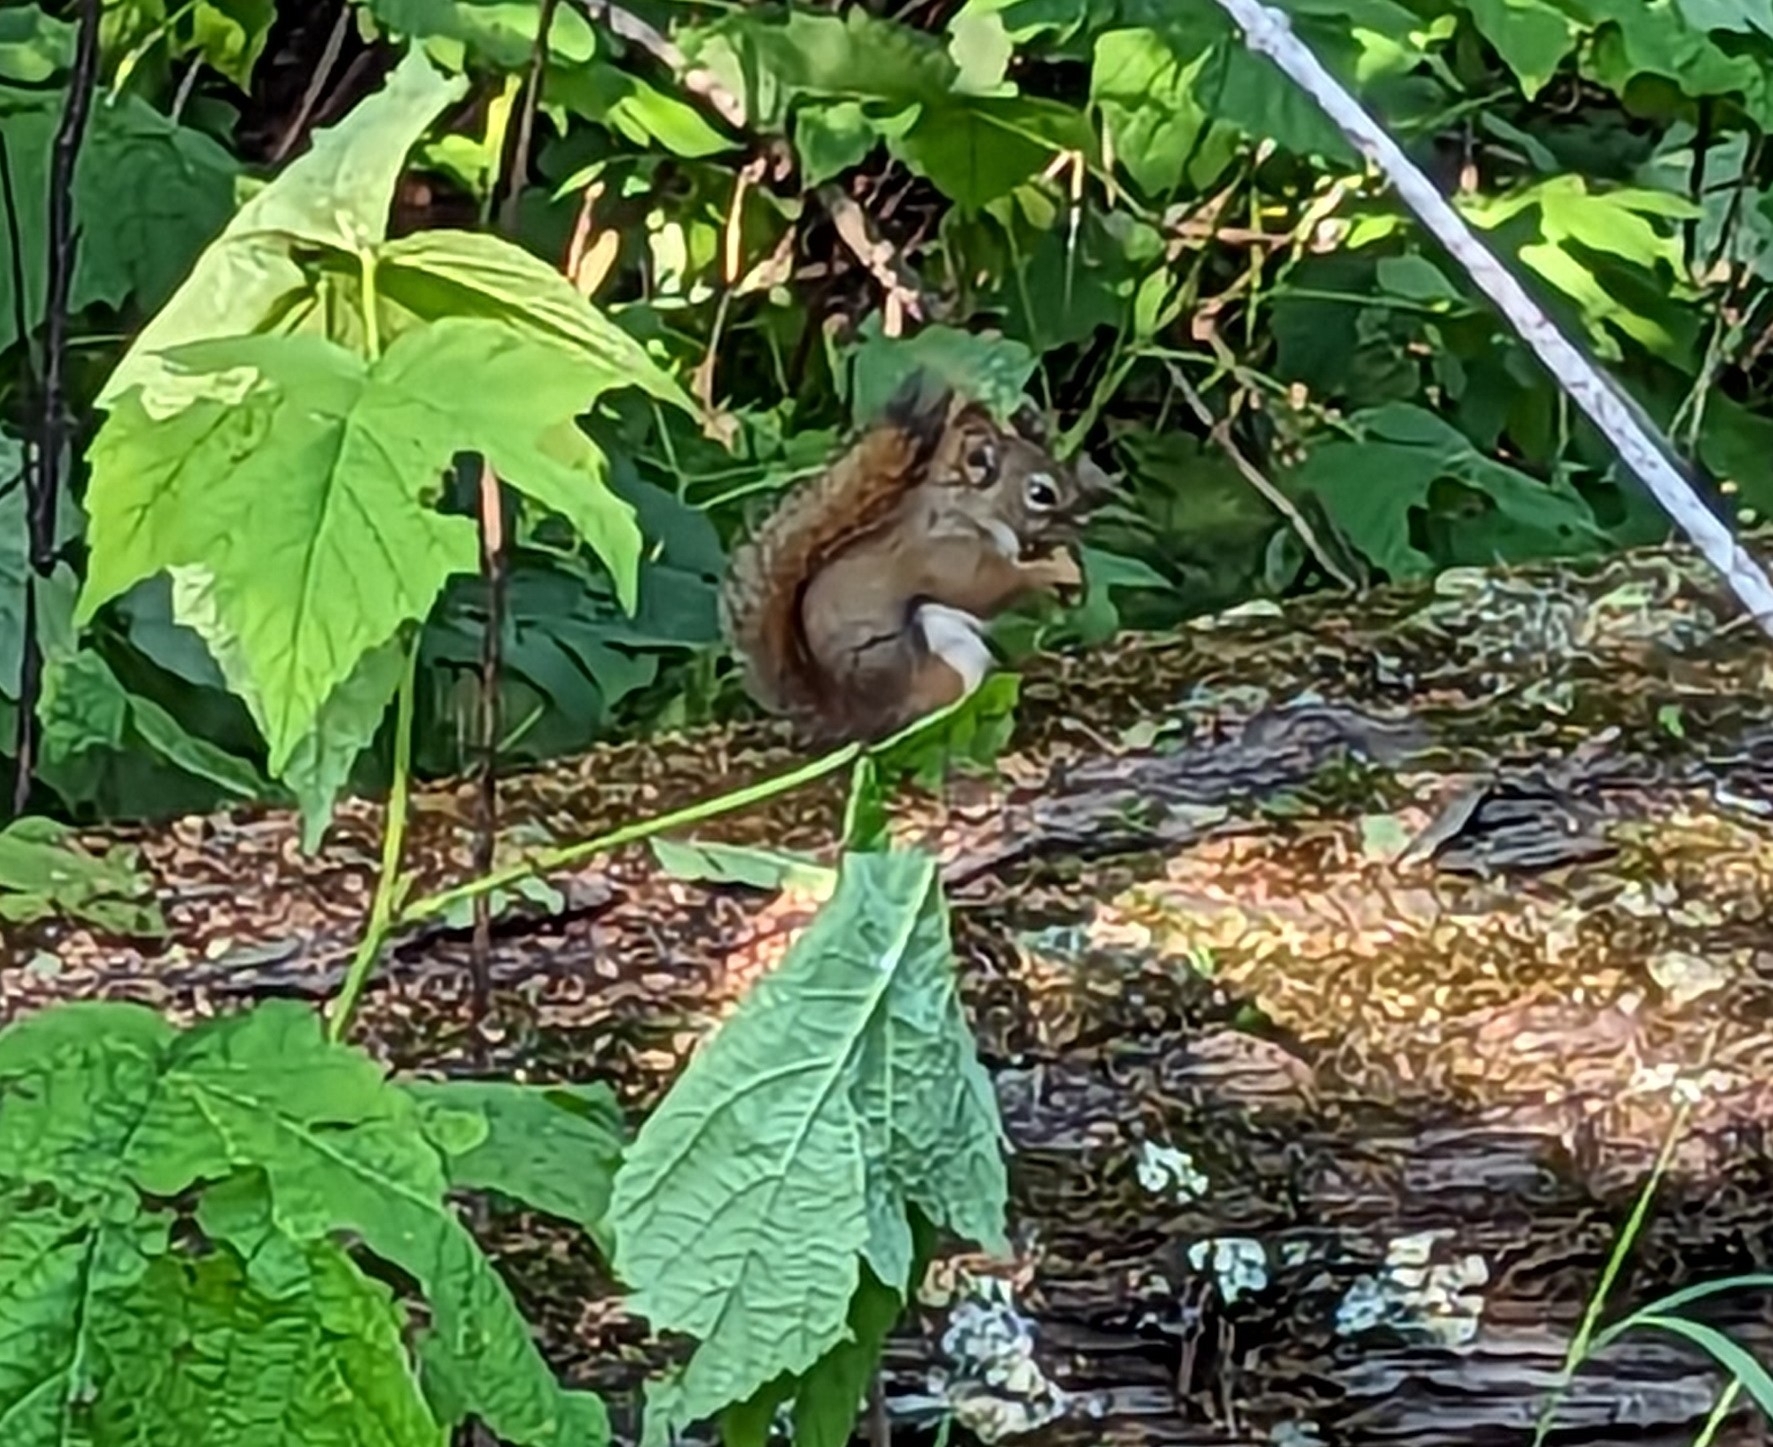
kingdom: Animalia
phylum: Chordata
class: Mammalia
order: Rodentia
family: Sciuridae
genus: Tamiasciurus
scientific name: Tamiasciurus hudsonicus
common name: Red squirrel
